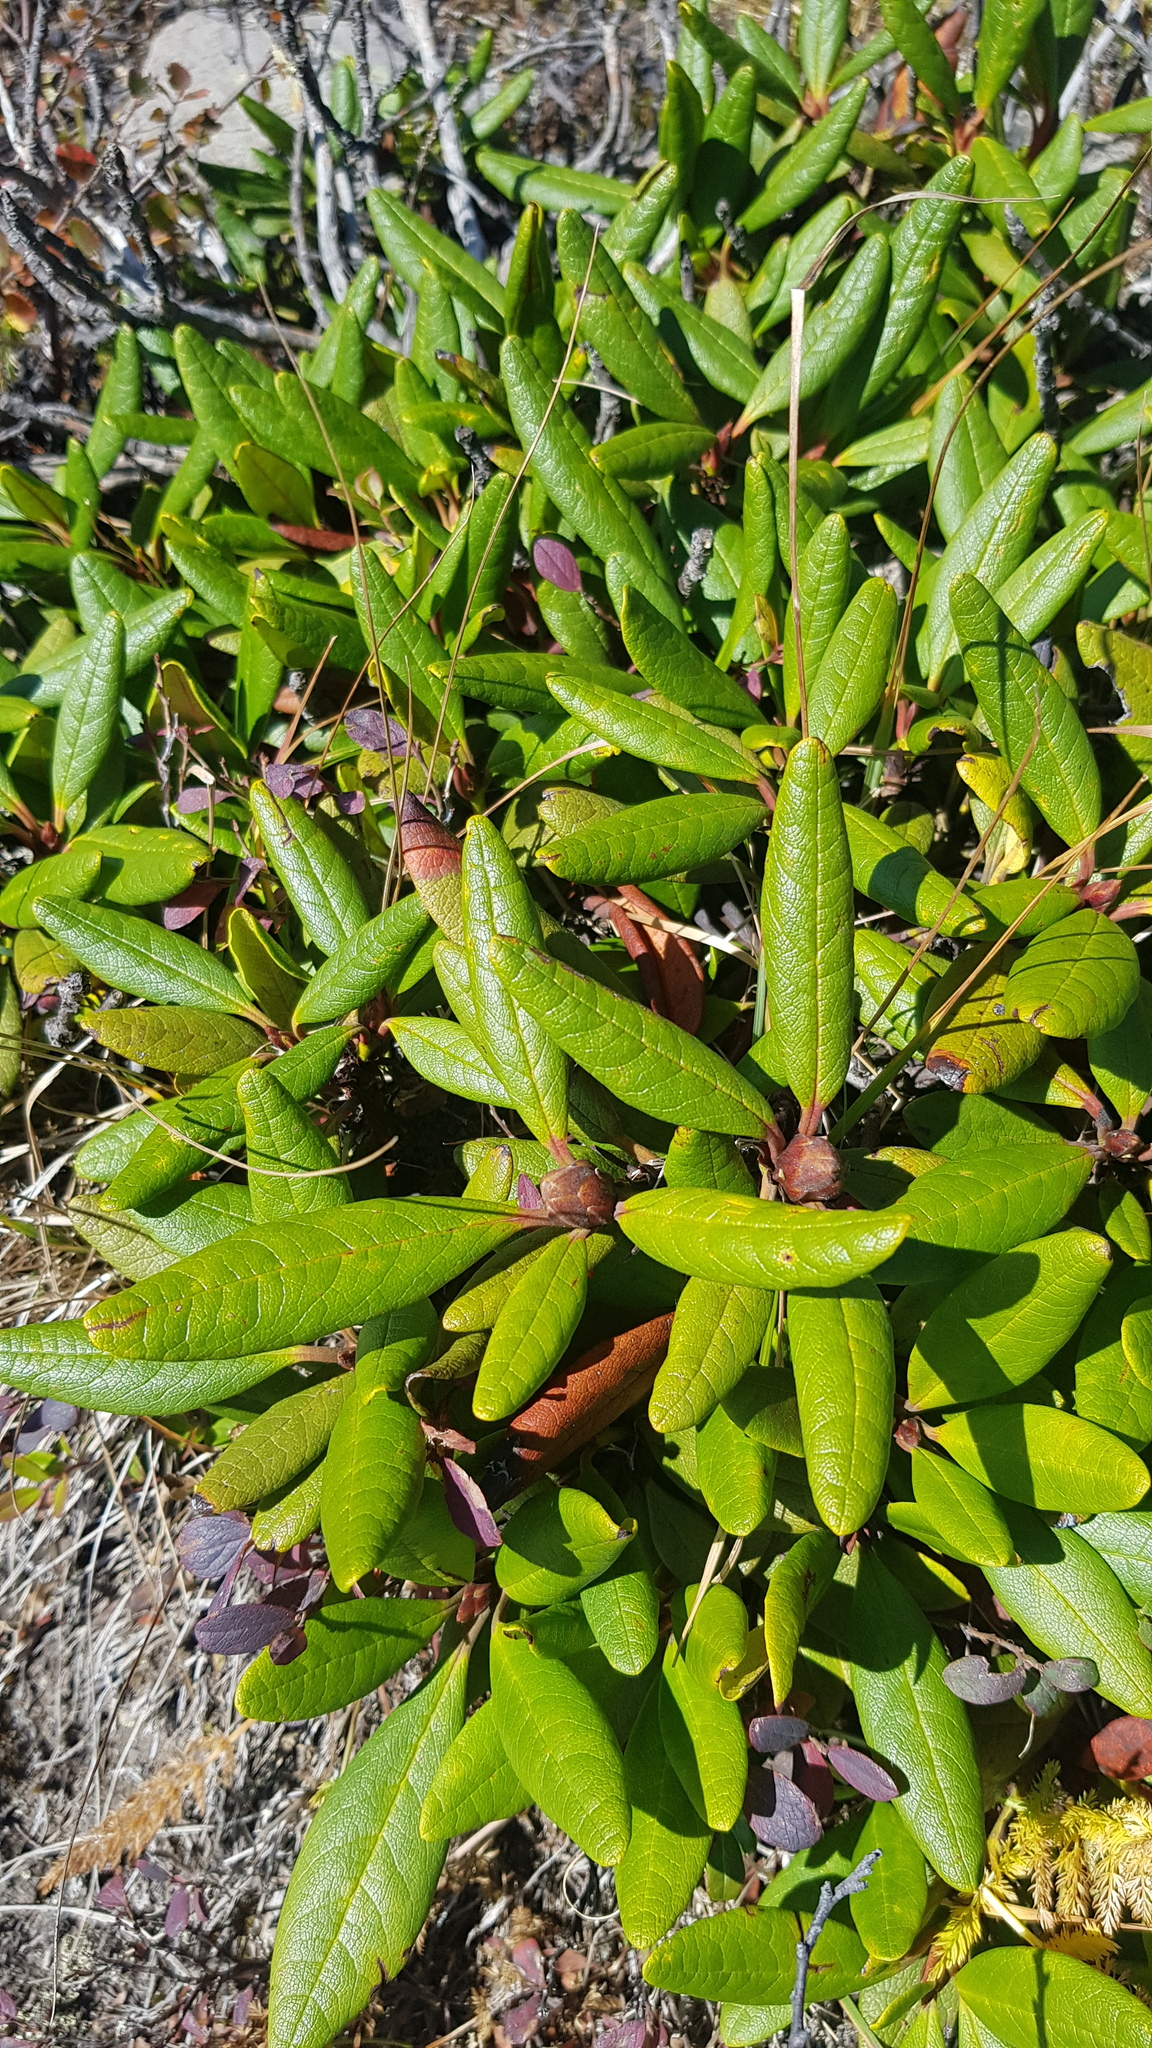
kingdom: Plantae
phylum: Tracheophyta
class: Magnoliopsida
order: Ericales
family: Ericaceae
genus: Rhododendron
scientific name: Rhododendron aureum
